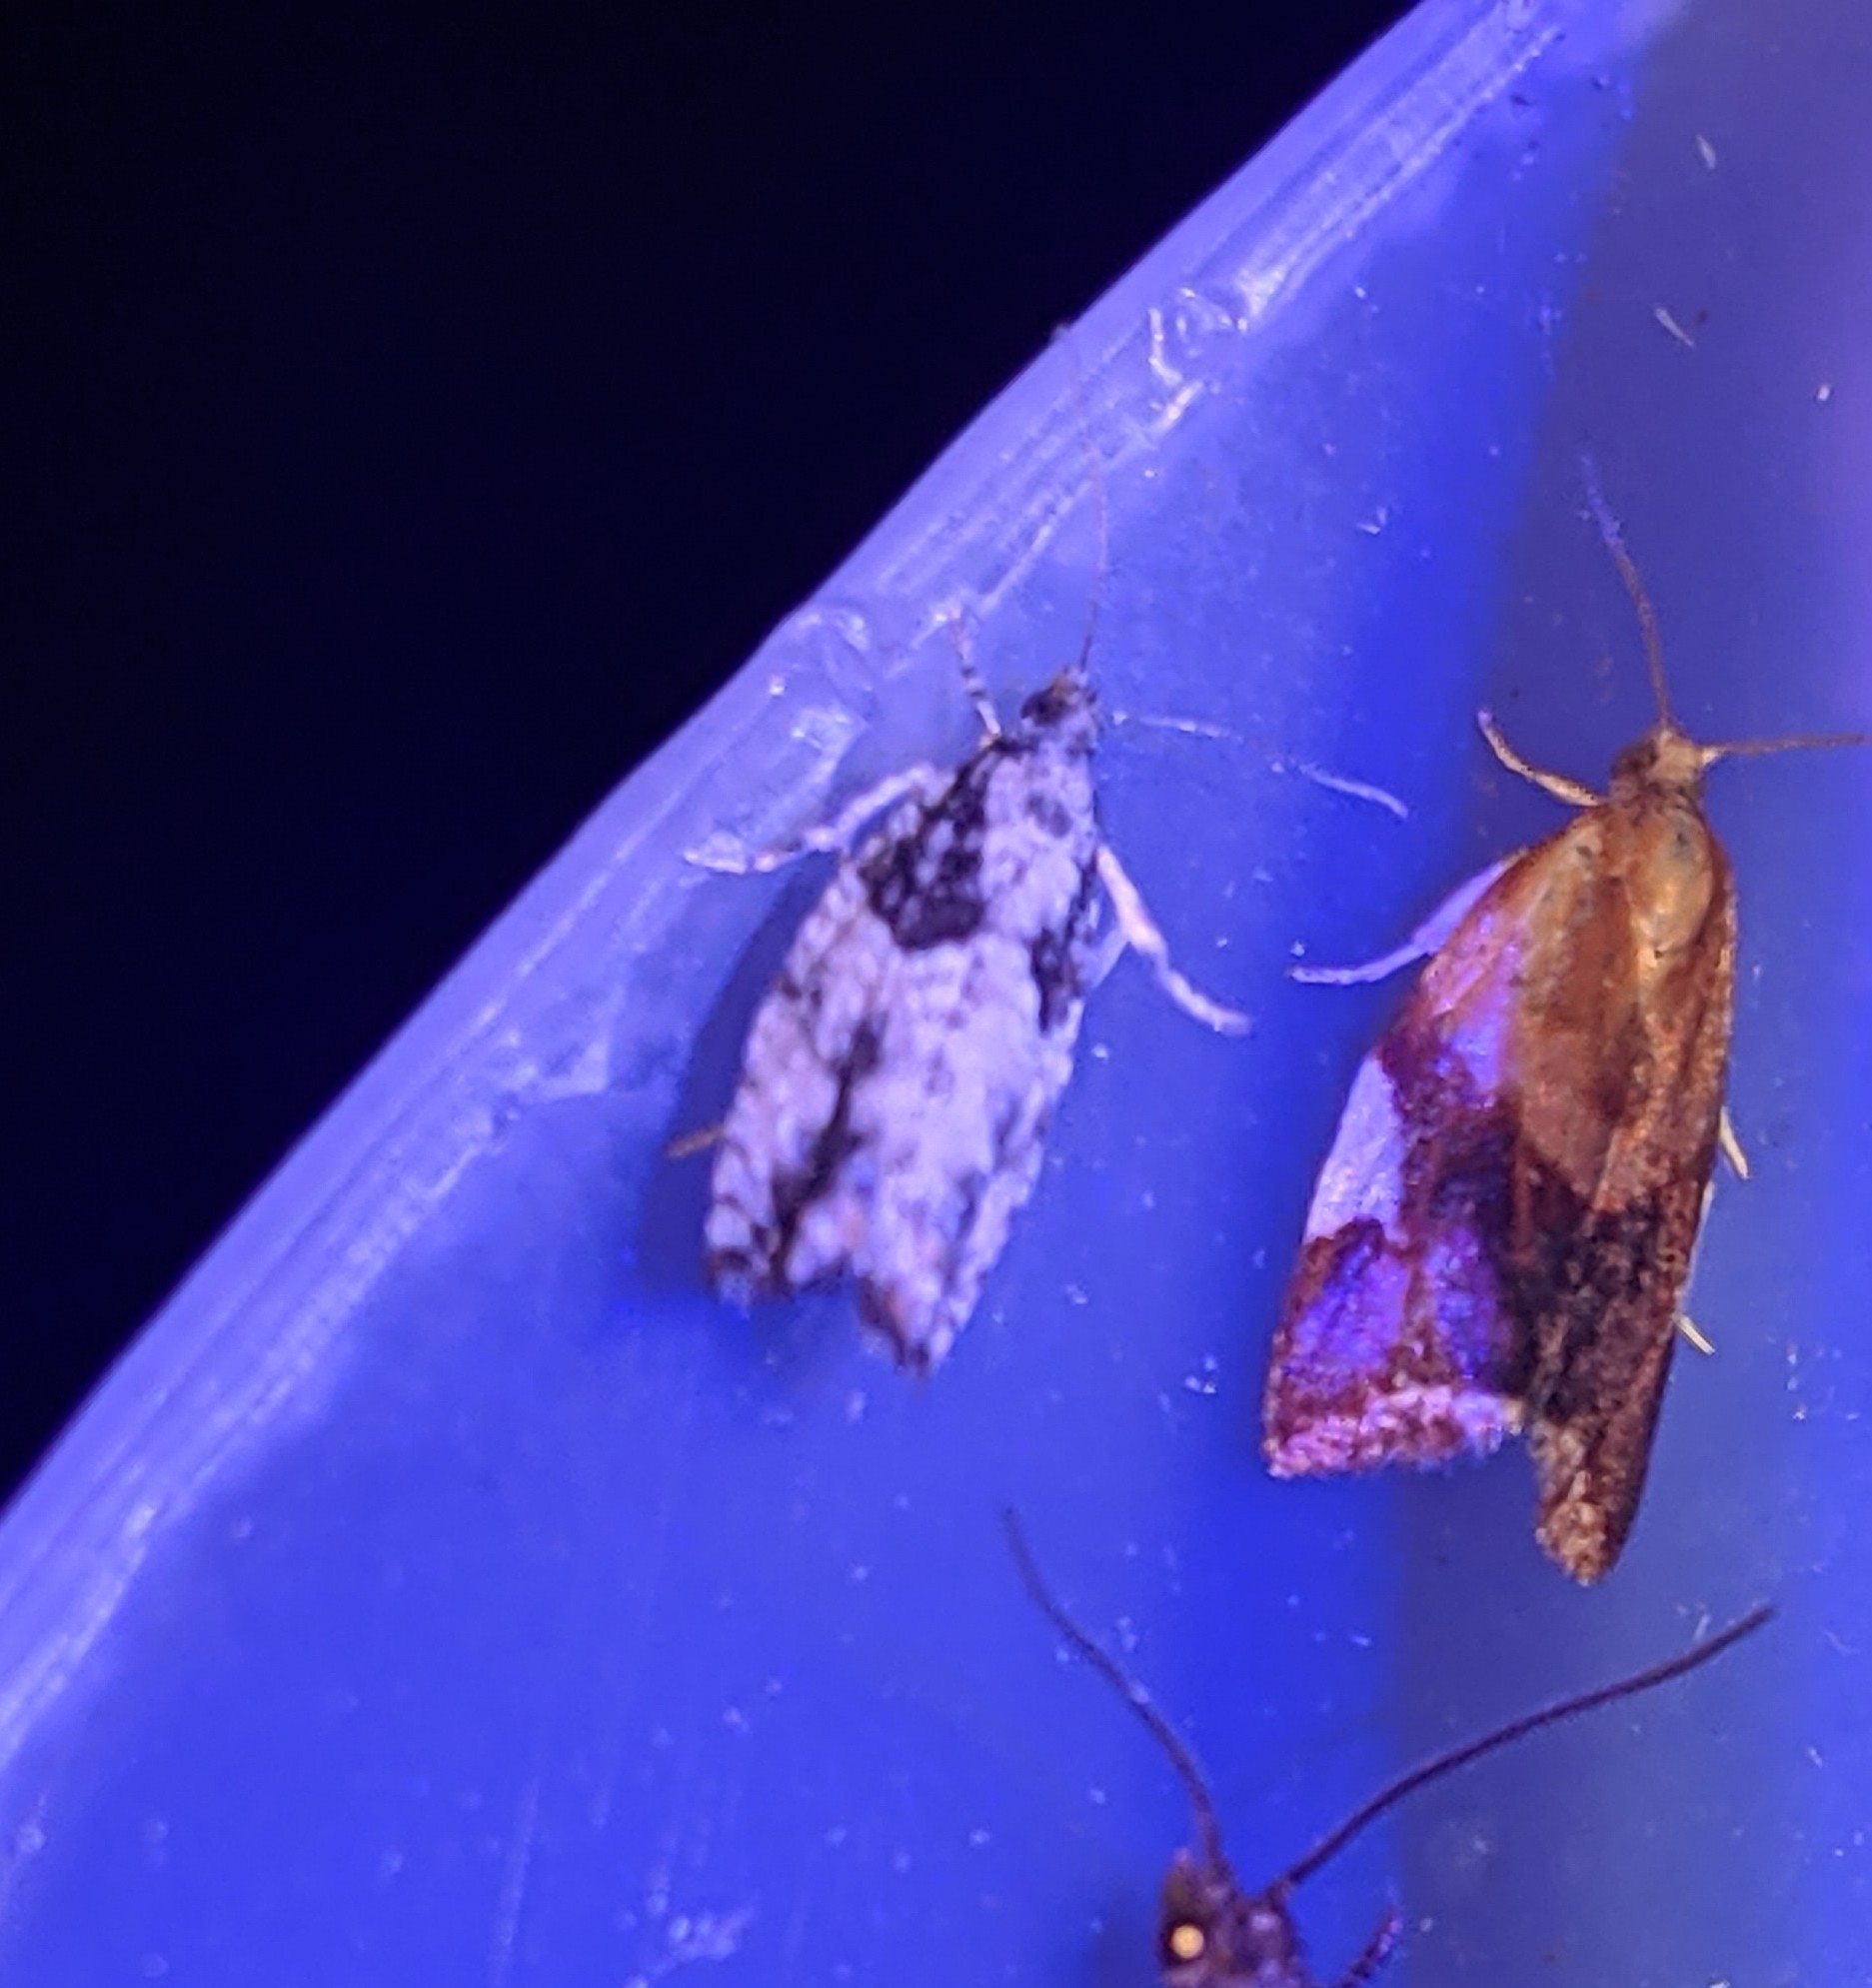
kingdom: Animalia
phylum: Arthropoda
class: Insecta
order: Lepidoptera
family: Tortricidae
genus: Epinotia
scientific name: Epinotia cinereana
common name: Grey aspen bell
